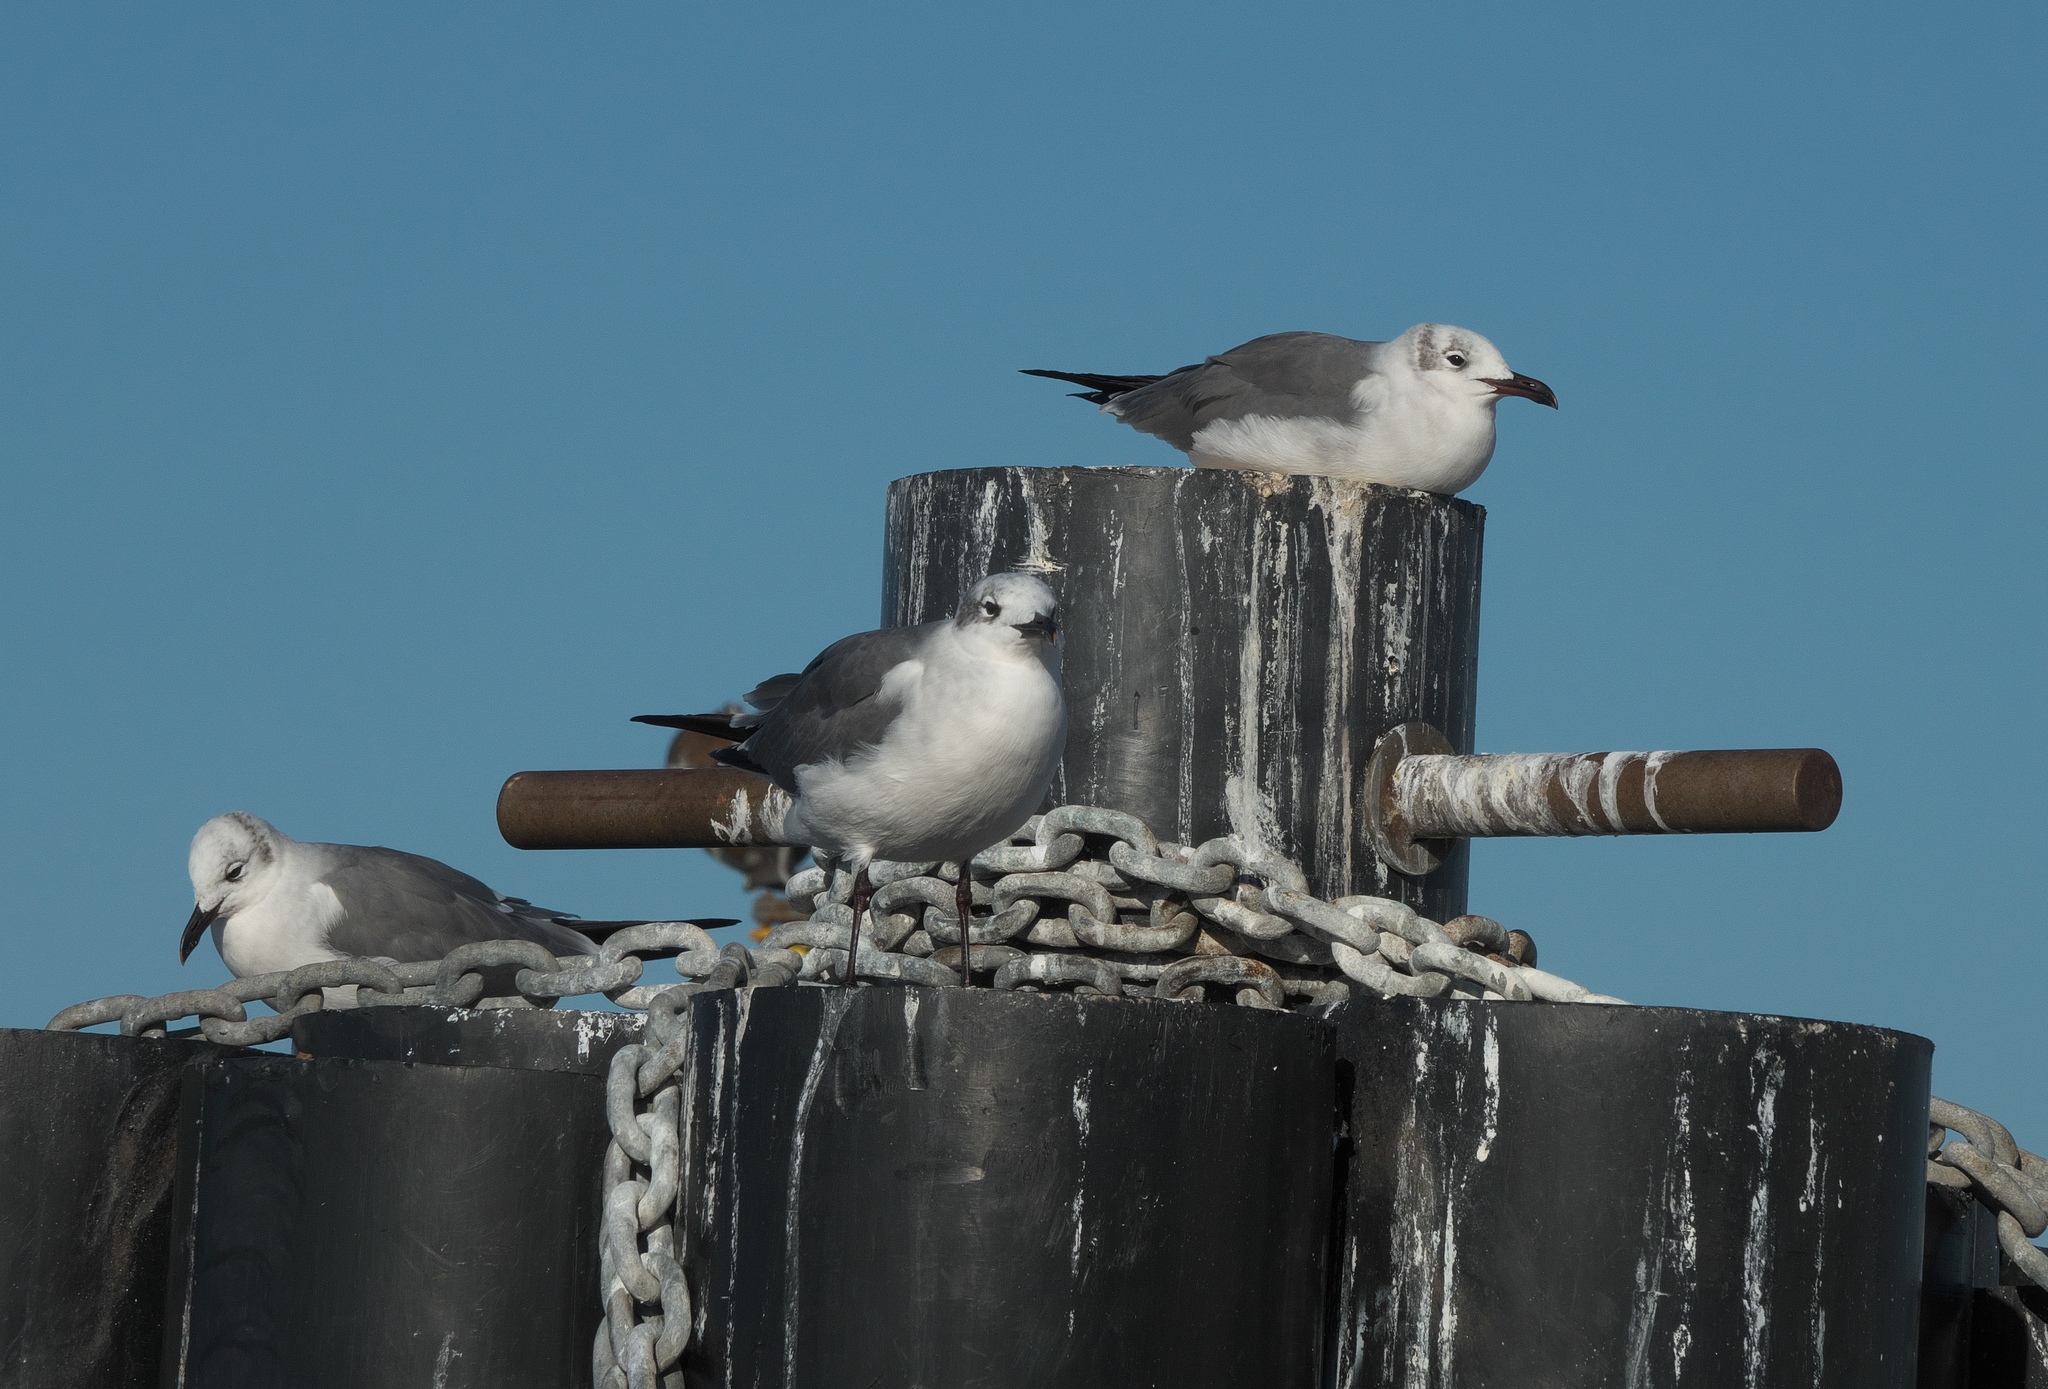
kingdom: Animalia
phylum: Chordata
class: Aves
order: Charadriiformes
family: Laridae
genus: Leucophaeus
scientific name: Leucophaeus atricilla
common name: Laughing gull
